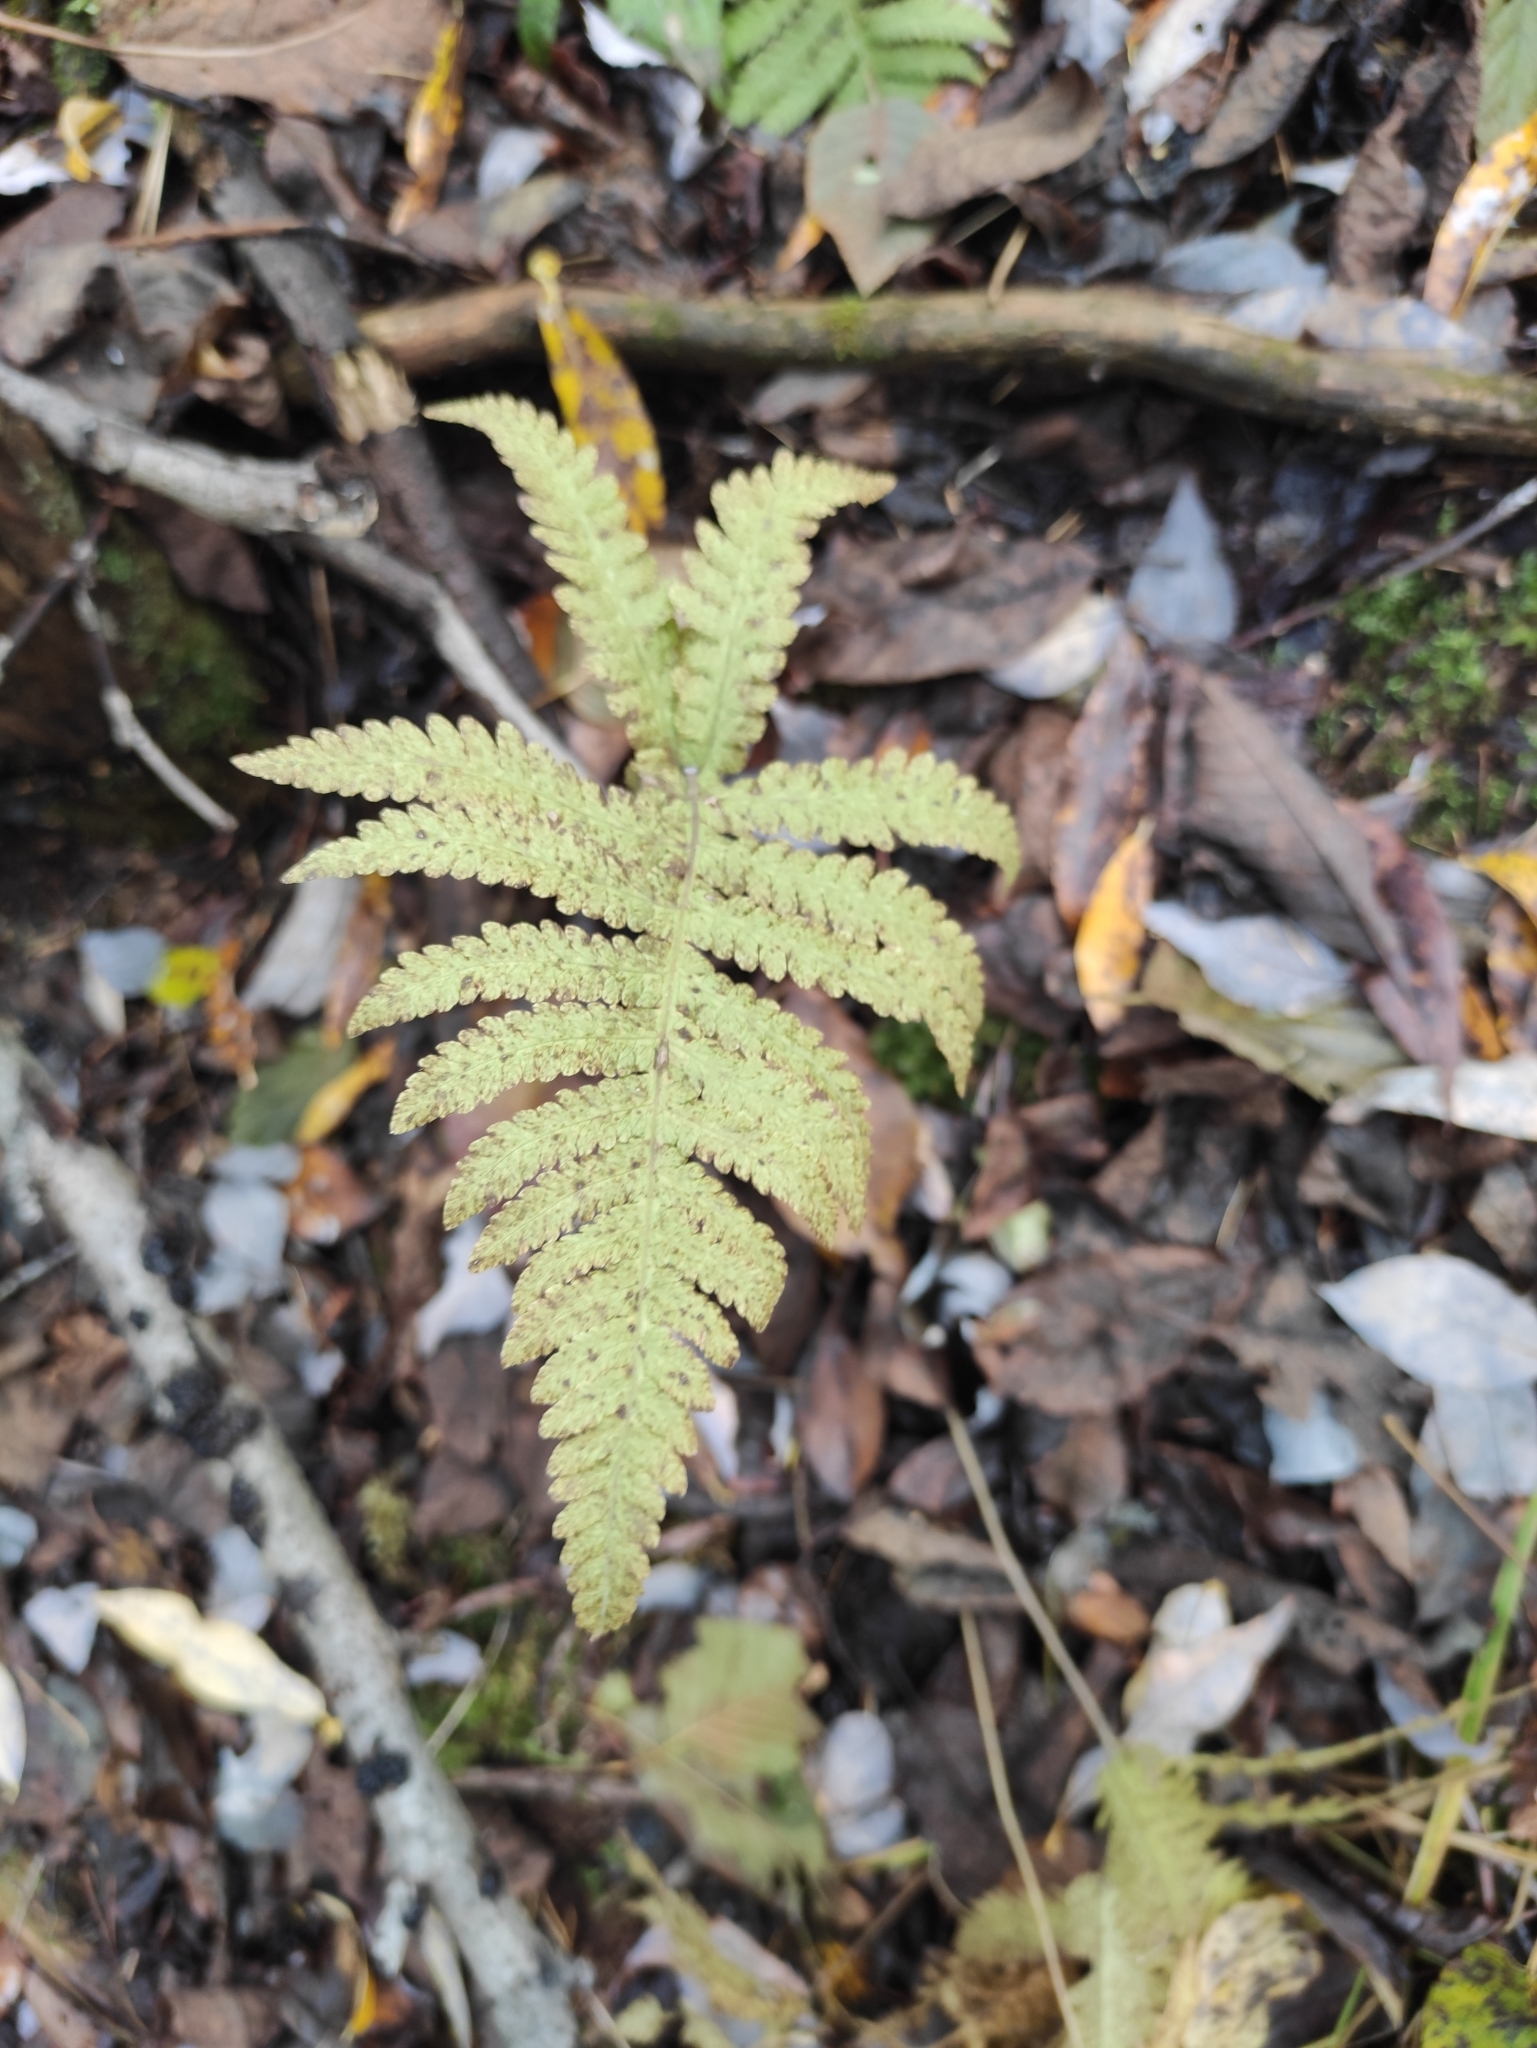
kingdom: Plantae
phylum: Tracheophyta
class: Polypodiopsida
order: Polypodiales
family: Thelypteridaceae
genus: Phegopteris
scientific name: Phegopteris connectilis
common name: Beech fern
